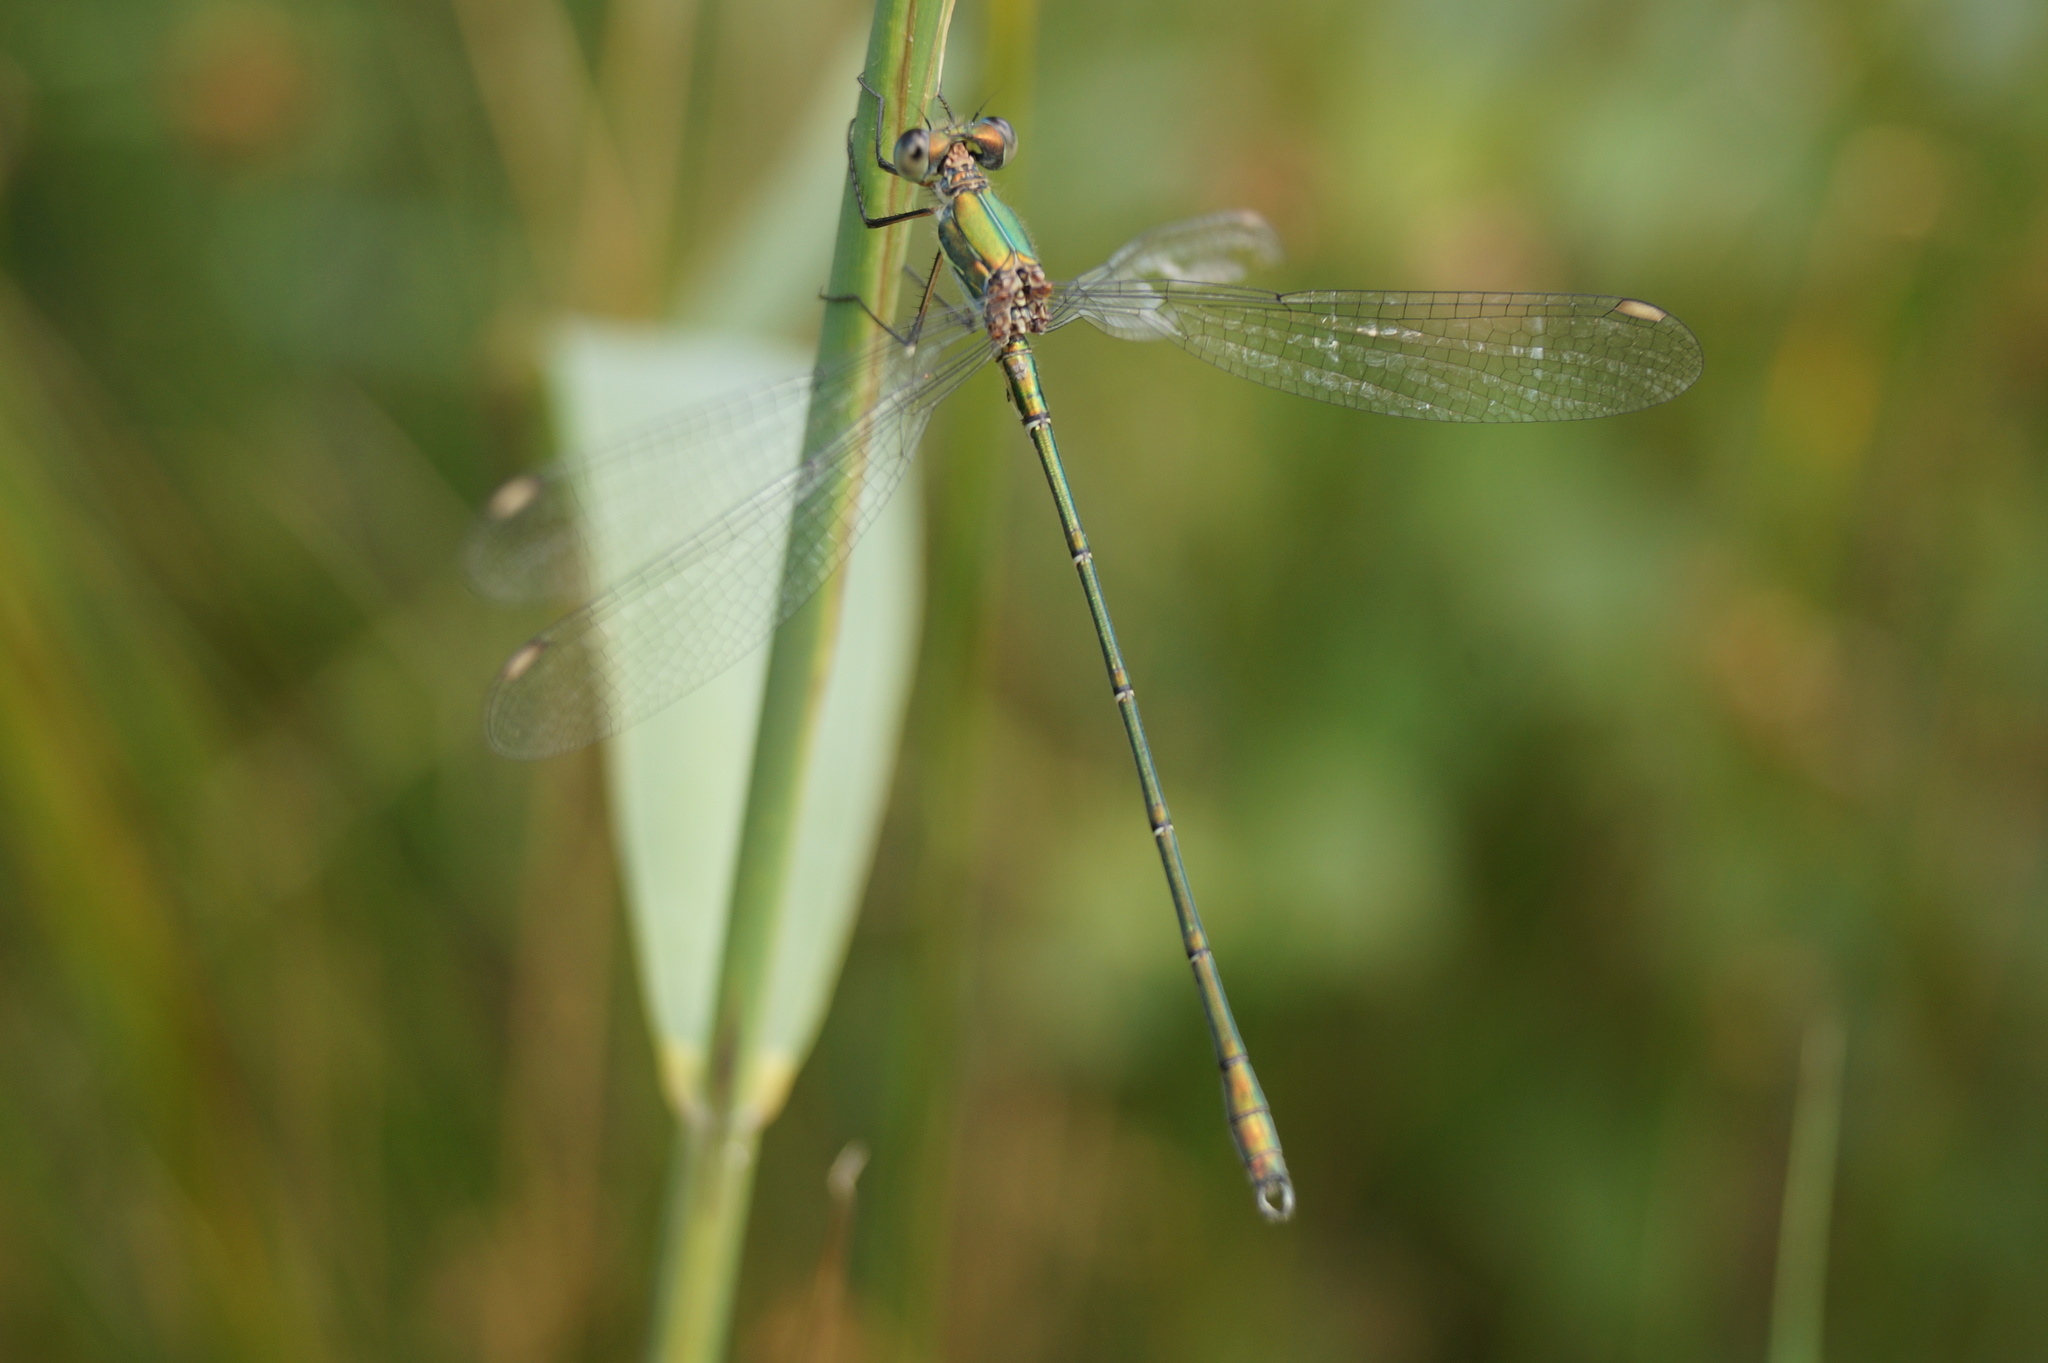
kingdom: Animalia
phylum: Arthropoda
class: Insecta
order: Odonata
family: Lestidae
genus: Chalcolestes
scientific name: Chalcolestes viridis
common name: Green emerald damselfly
